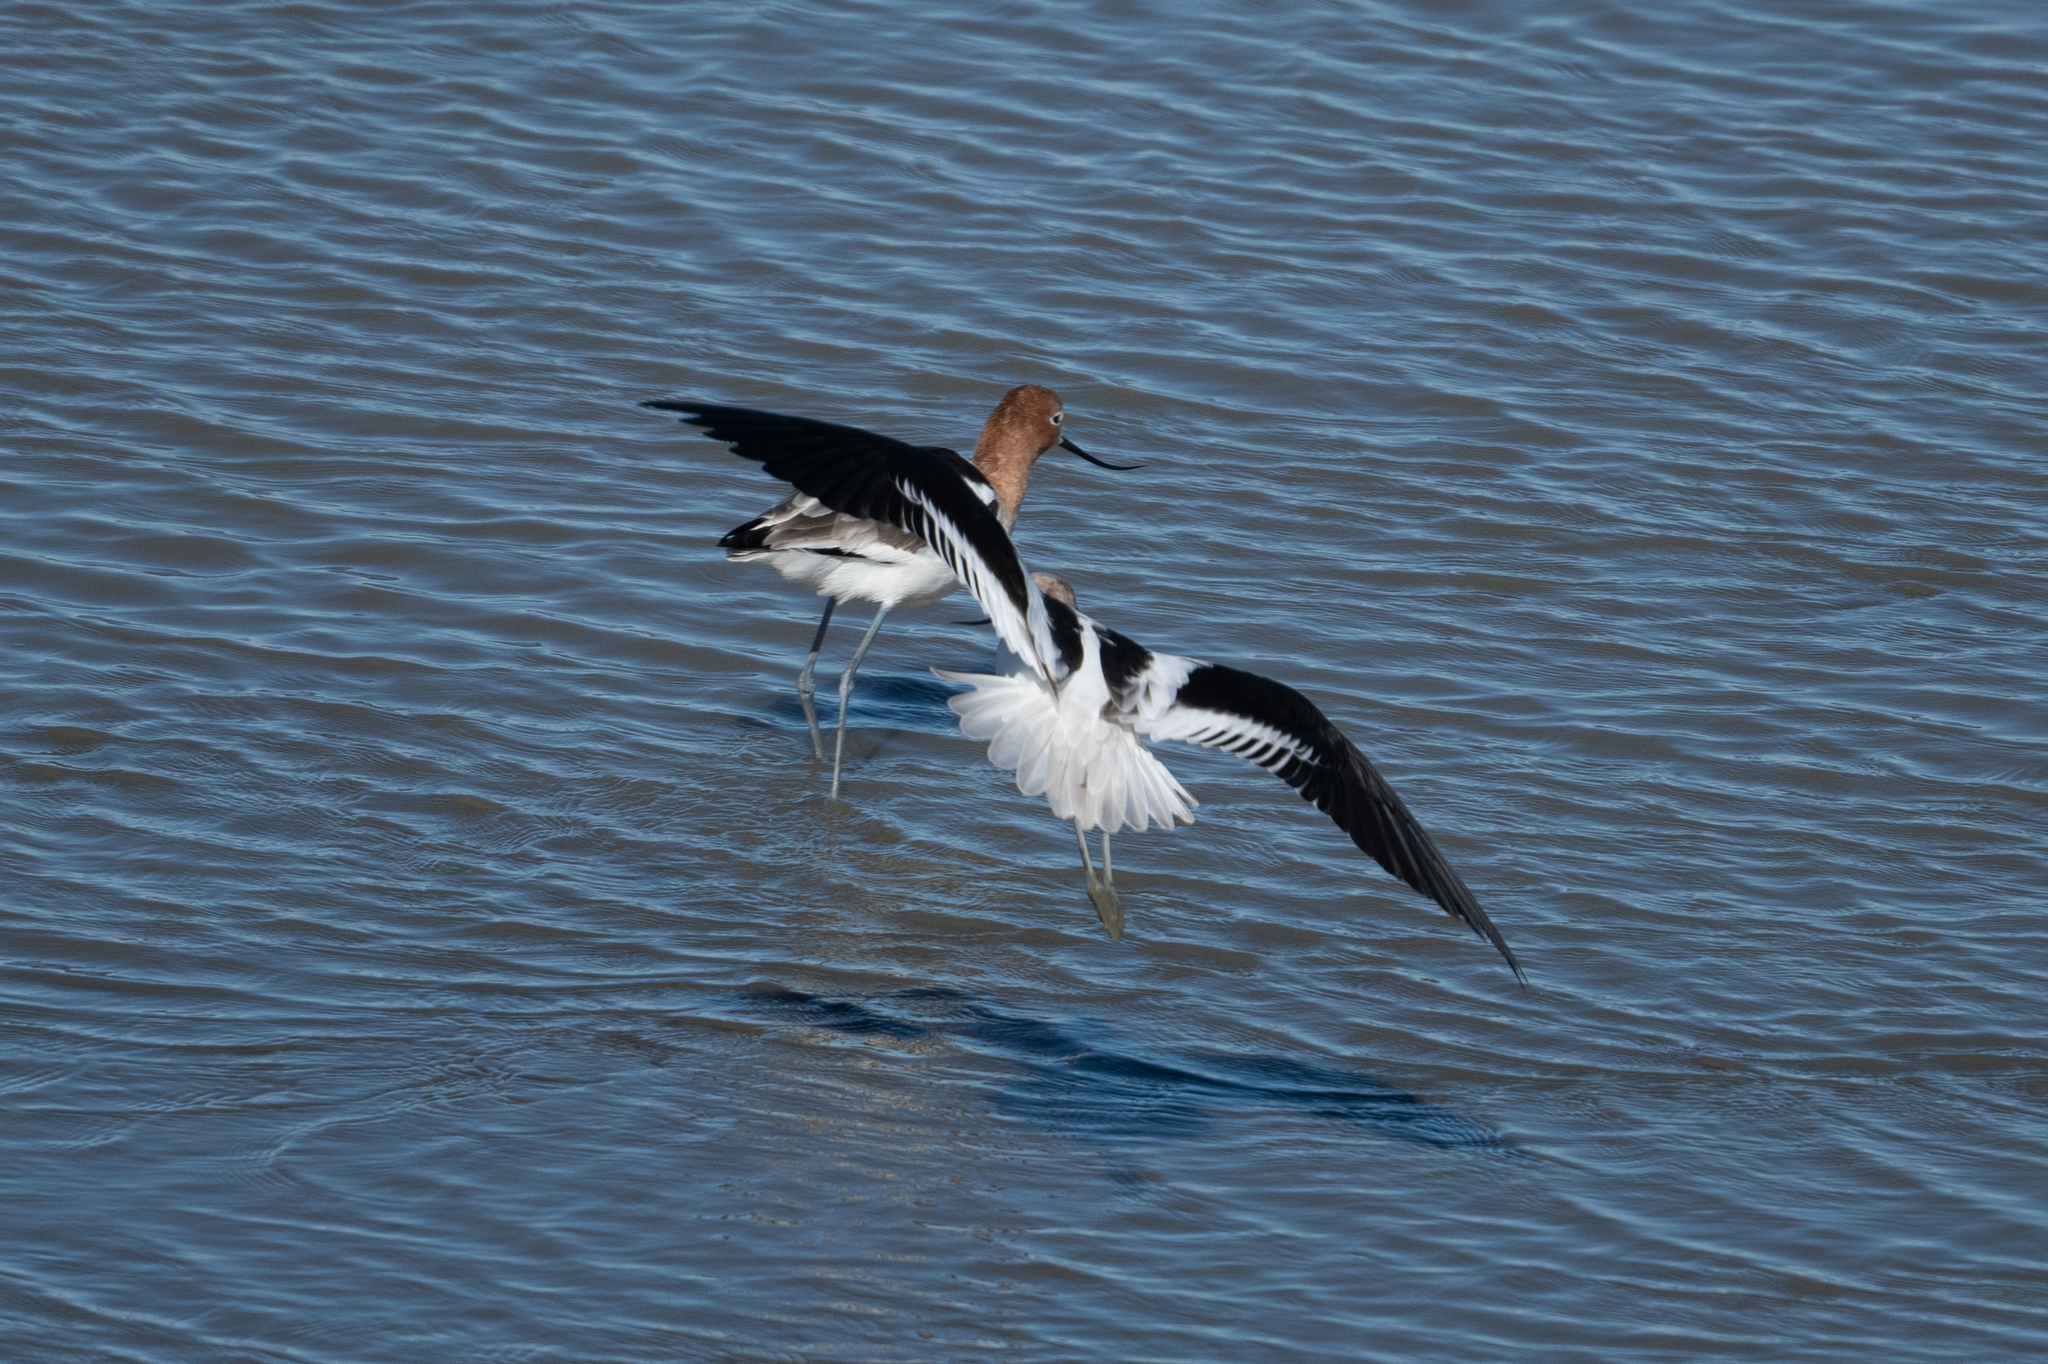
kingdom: Animalia
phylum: Chordata
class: Aves
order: Charadriiformes
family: Recurvirostridae
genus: Recurvirostra
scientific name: Recurvirostra americana
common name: American avocet
